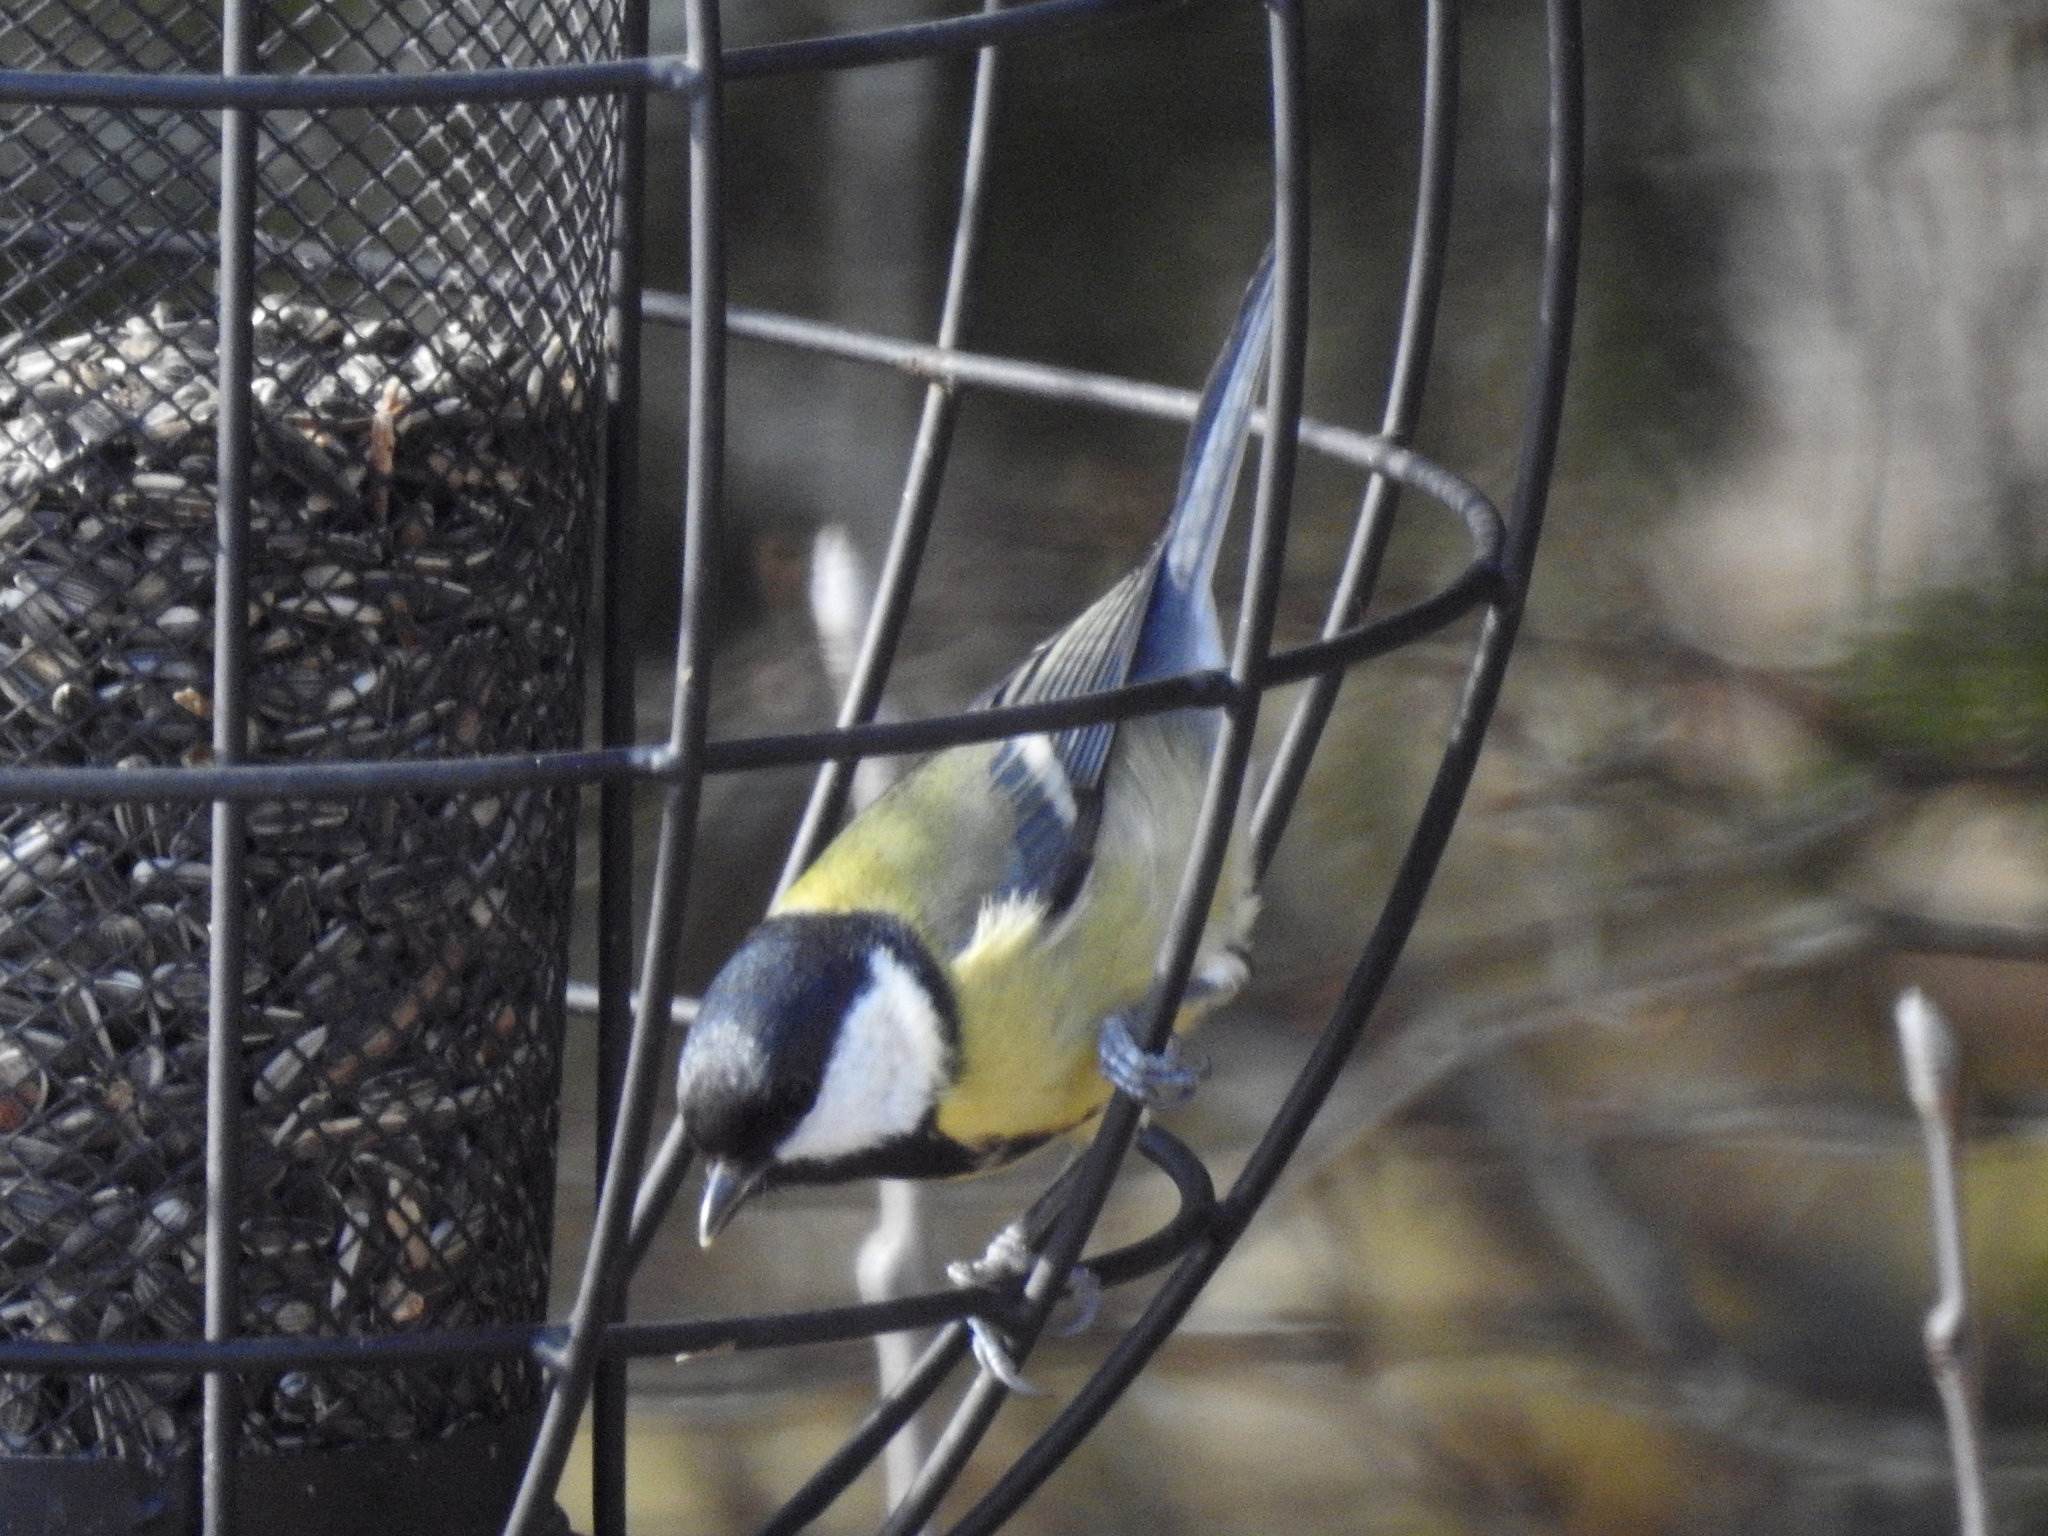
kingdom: Animalia
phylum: Chordata
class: Aves
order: Passeriformes
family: Paridae
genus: Parus
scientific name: Parus major
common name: Great tit
